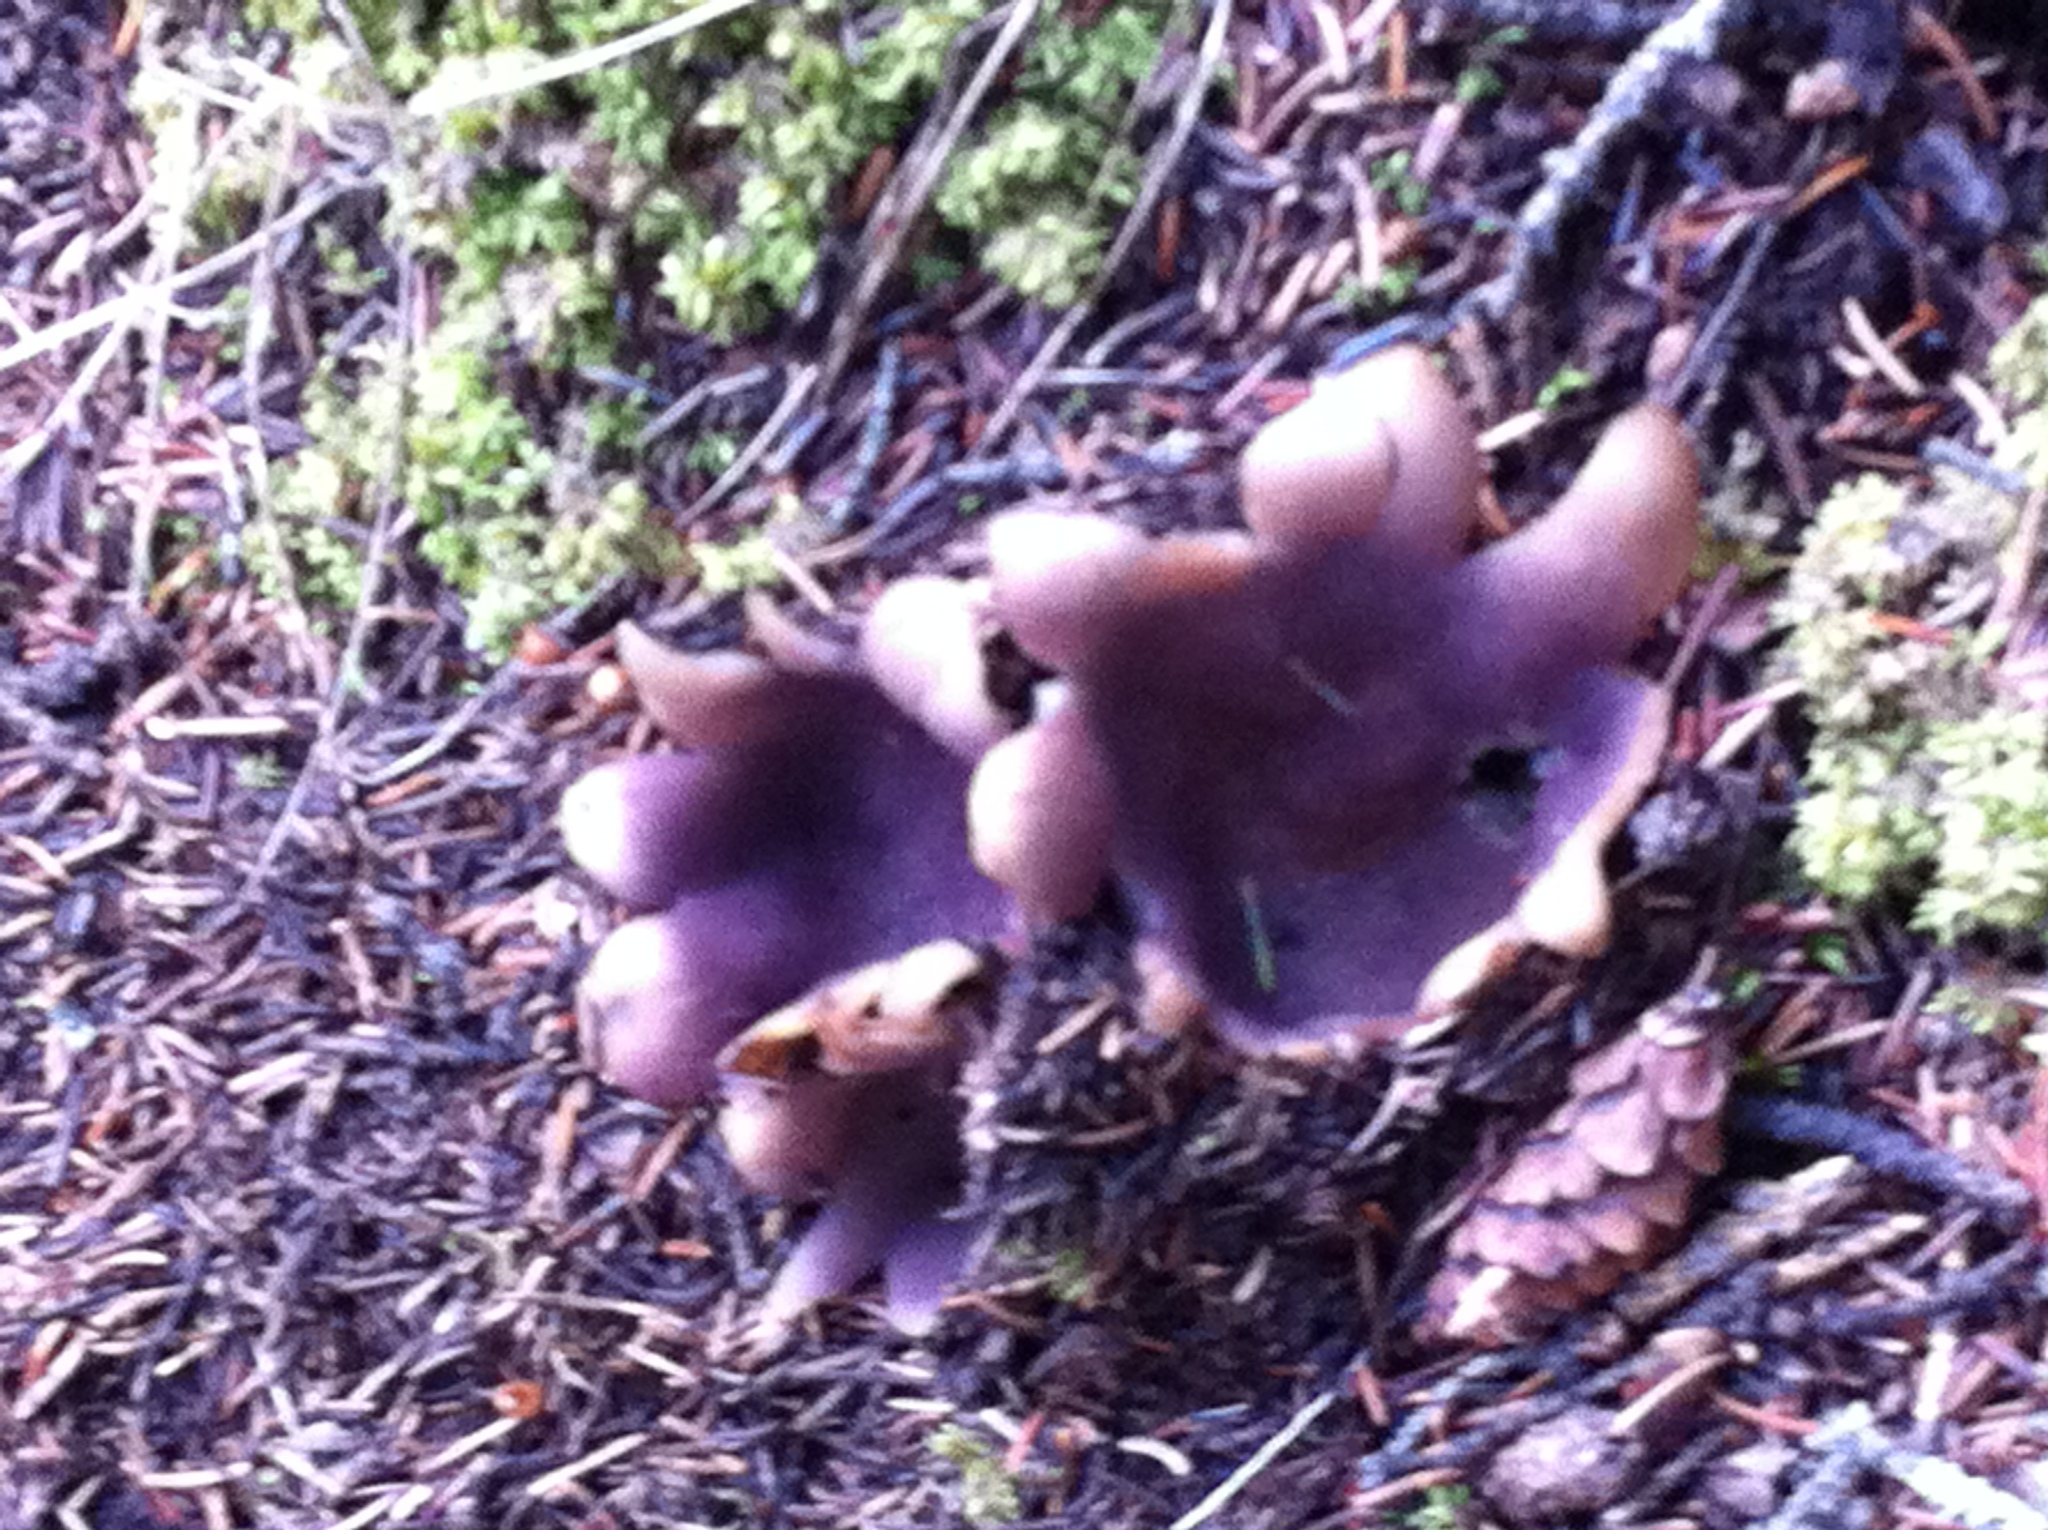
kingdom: Fungi
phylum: Ascomycota
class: Pezizomycetes
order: Pezizales
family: Pezizaceae
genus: Sarcosphaera
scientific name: Sarcosphaera coronaria
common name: Violet crowncup
